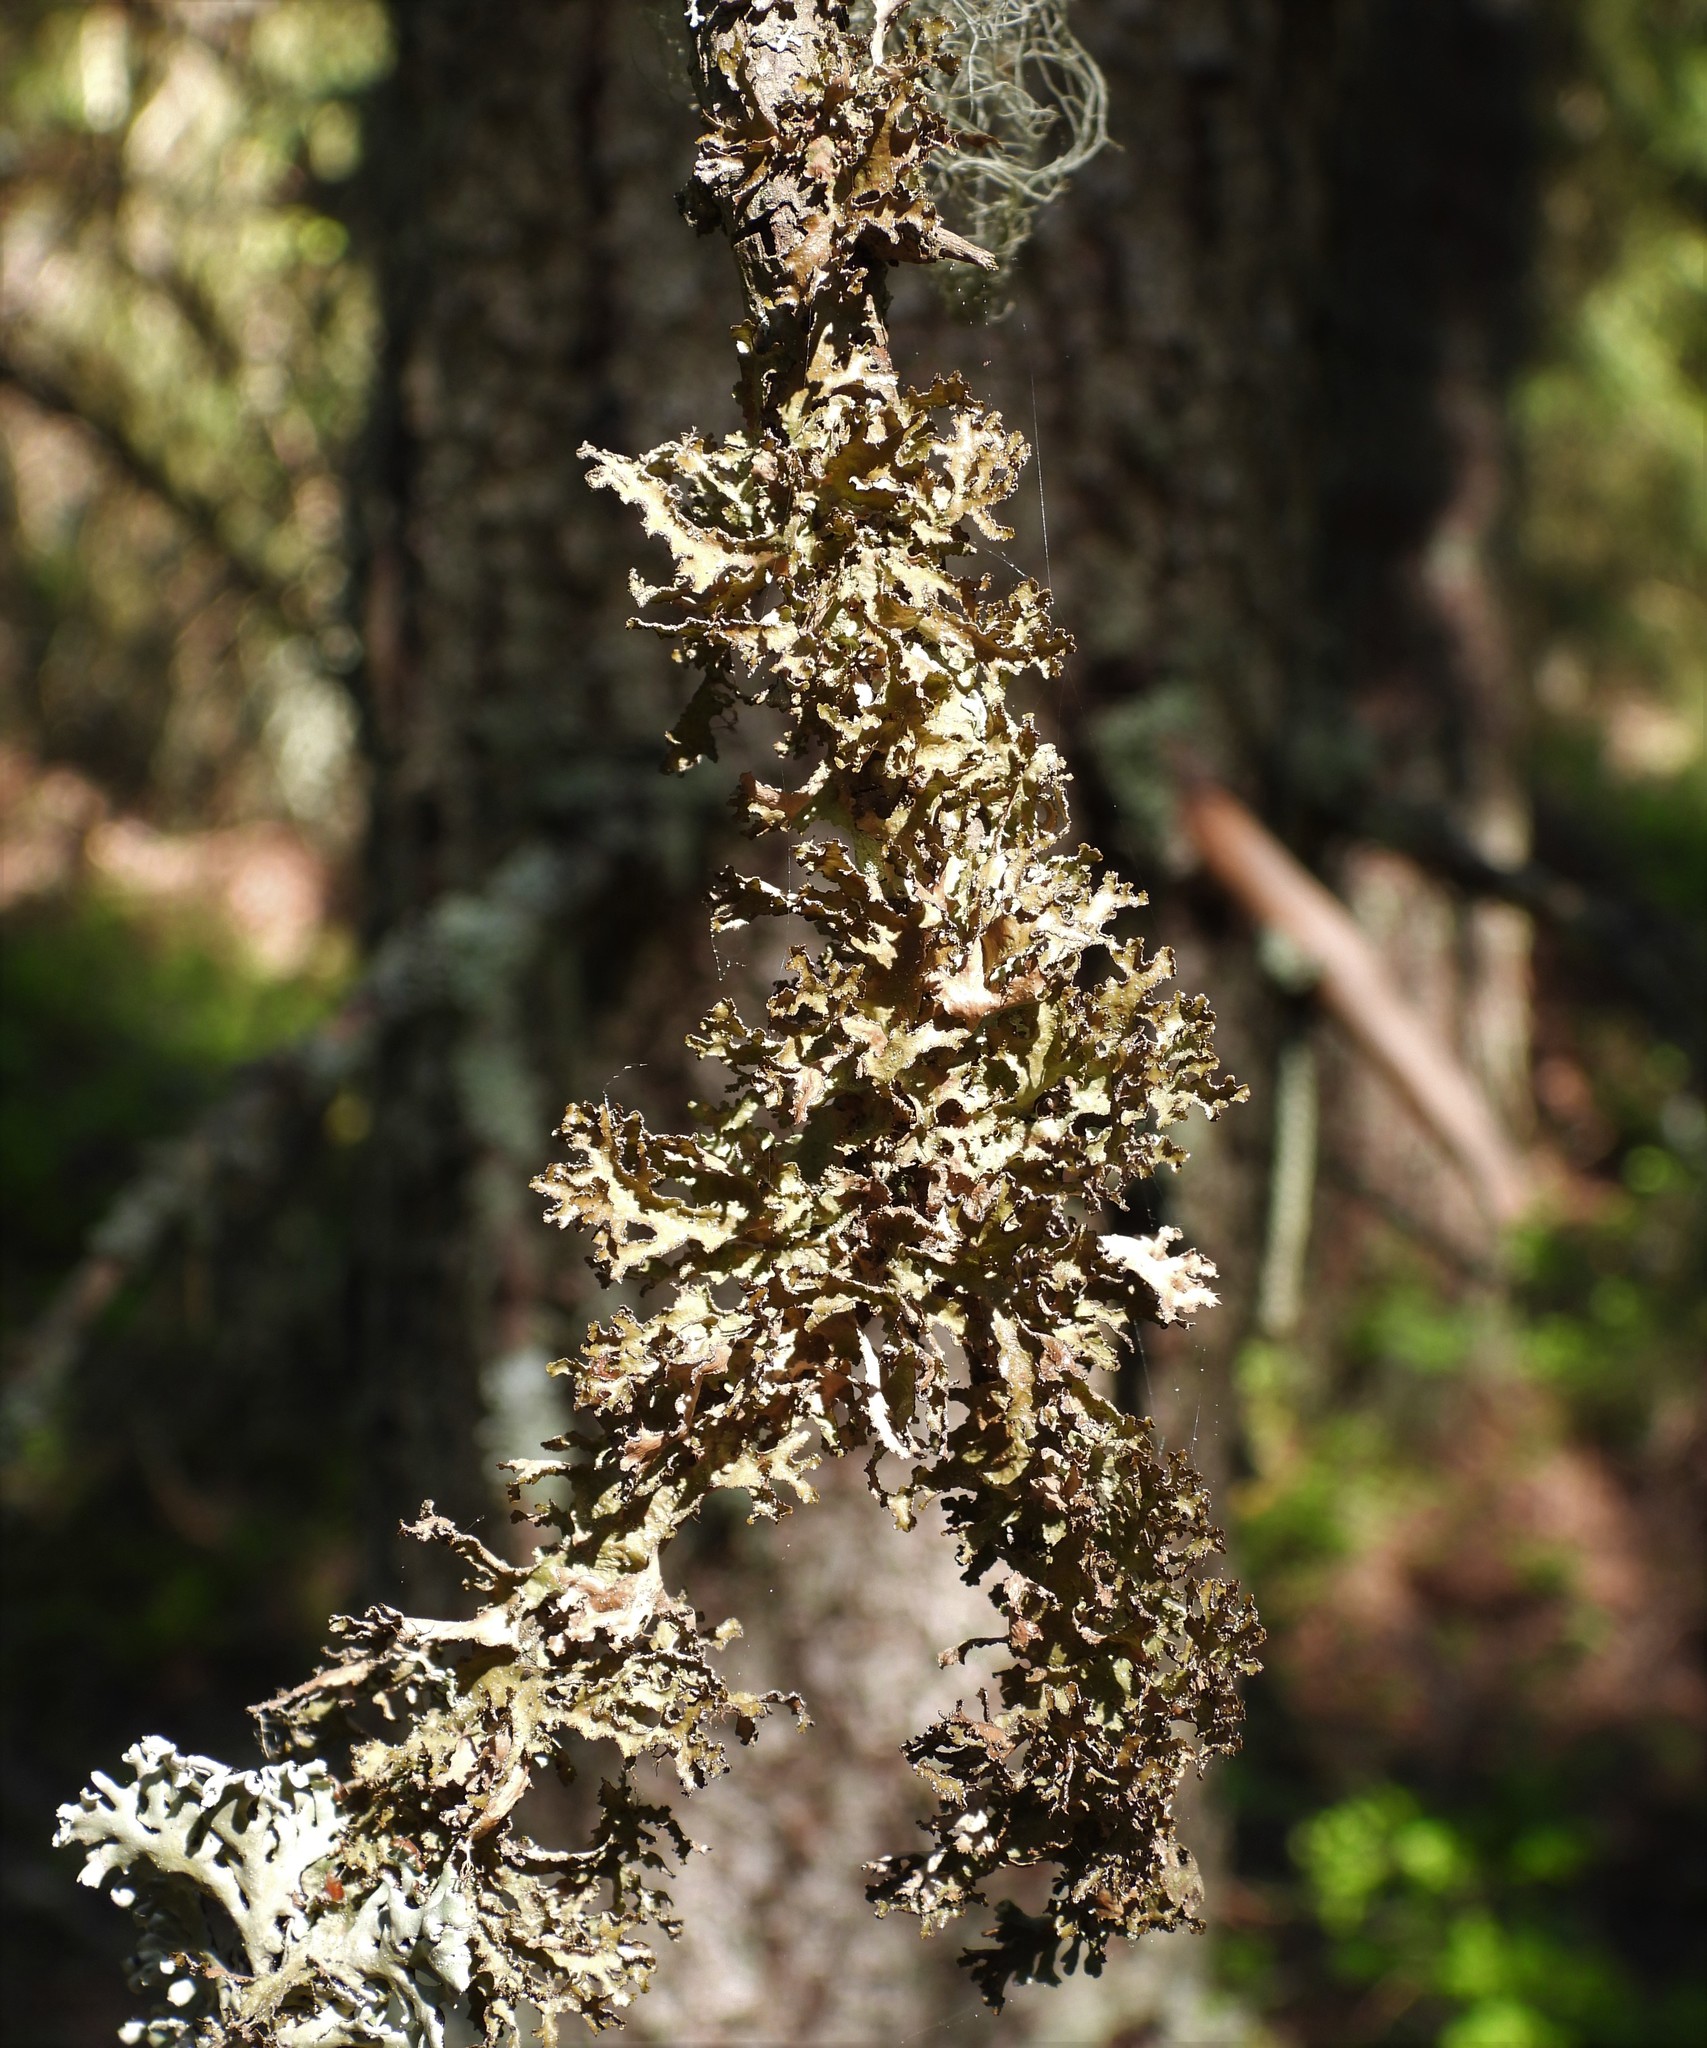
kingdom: Fungi
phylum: Ascomycota
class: Lecanoromycetes
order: Lecanorales
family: Parmeliaceae
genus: Nephromopsis
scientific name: Nephromopsis chlorophylla
